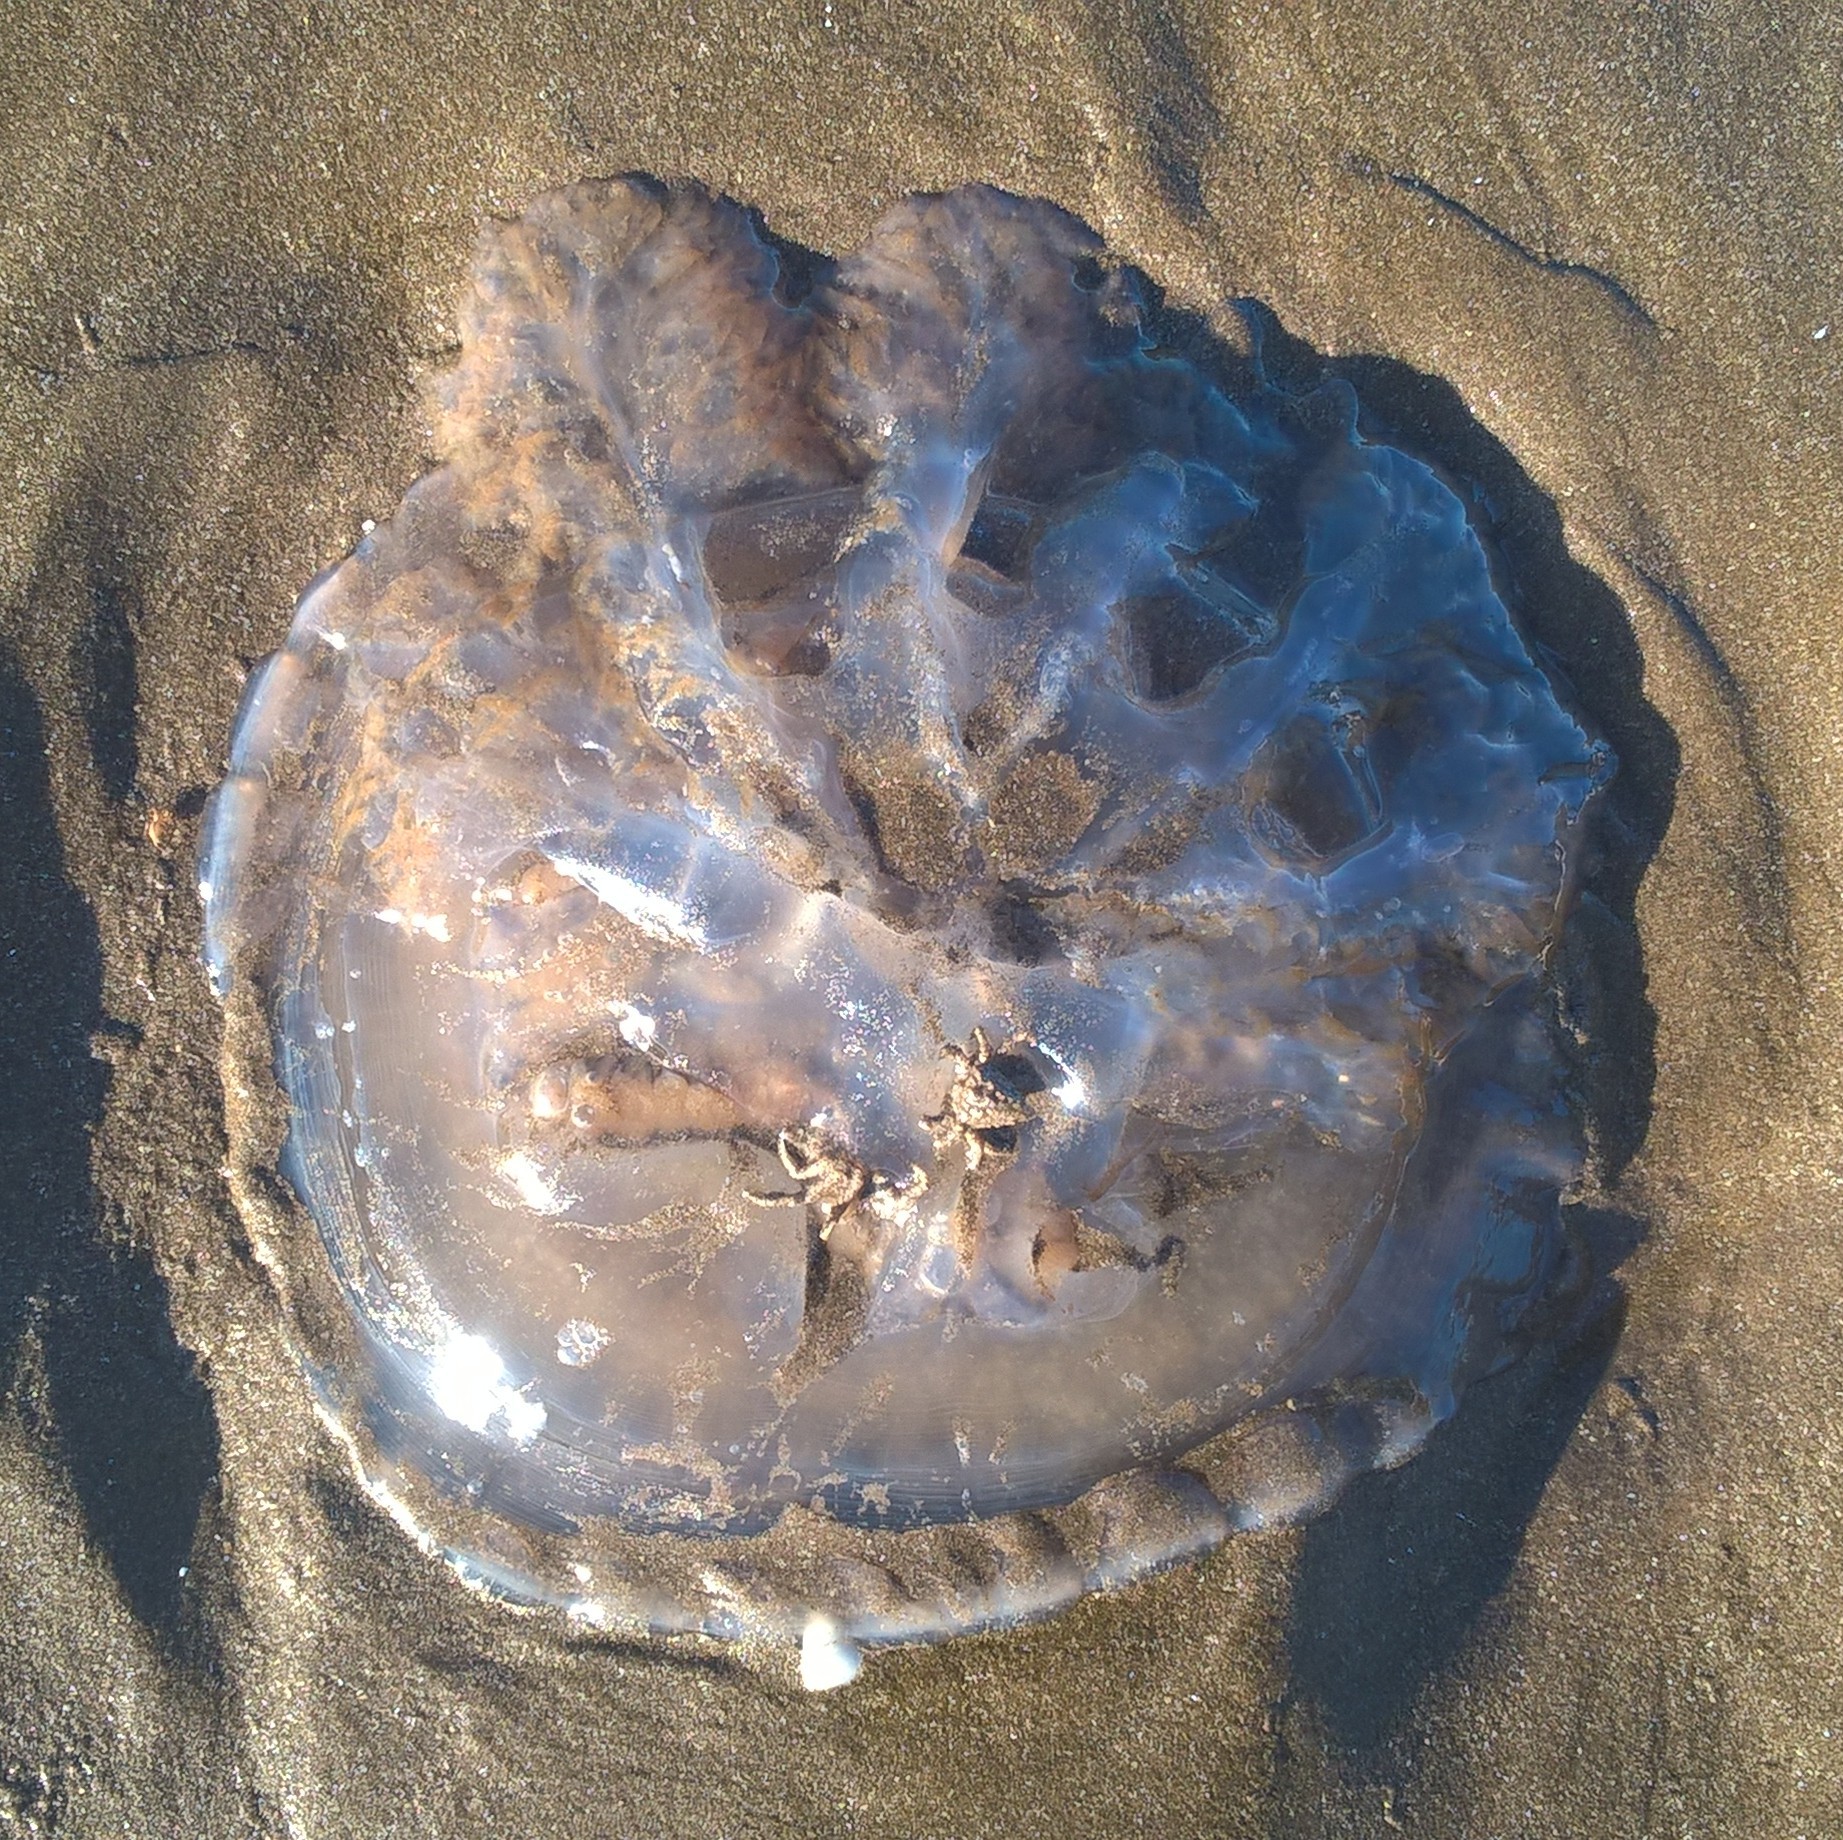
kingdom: Animalia
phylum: Cnidaria
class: Scyphozoa
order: Rhizostomeae
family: Lychnorhizidae
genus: Lychnorhiza
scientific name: Lychnorhiza lucerna
